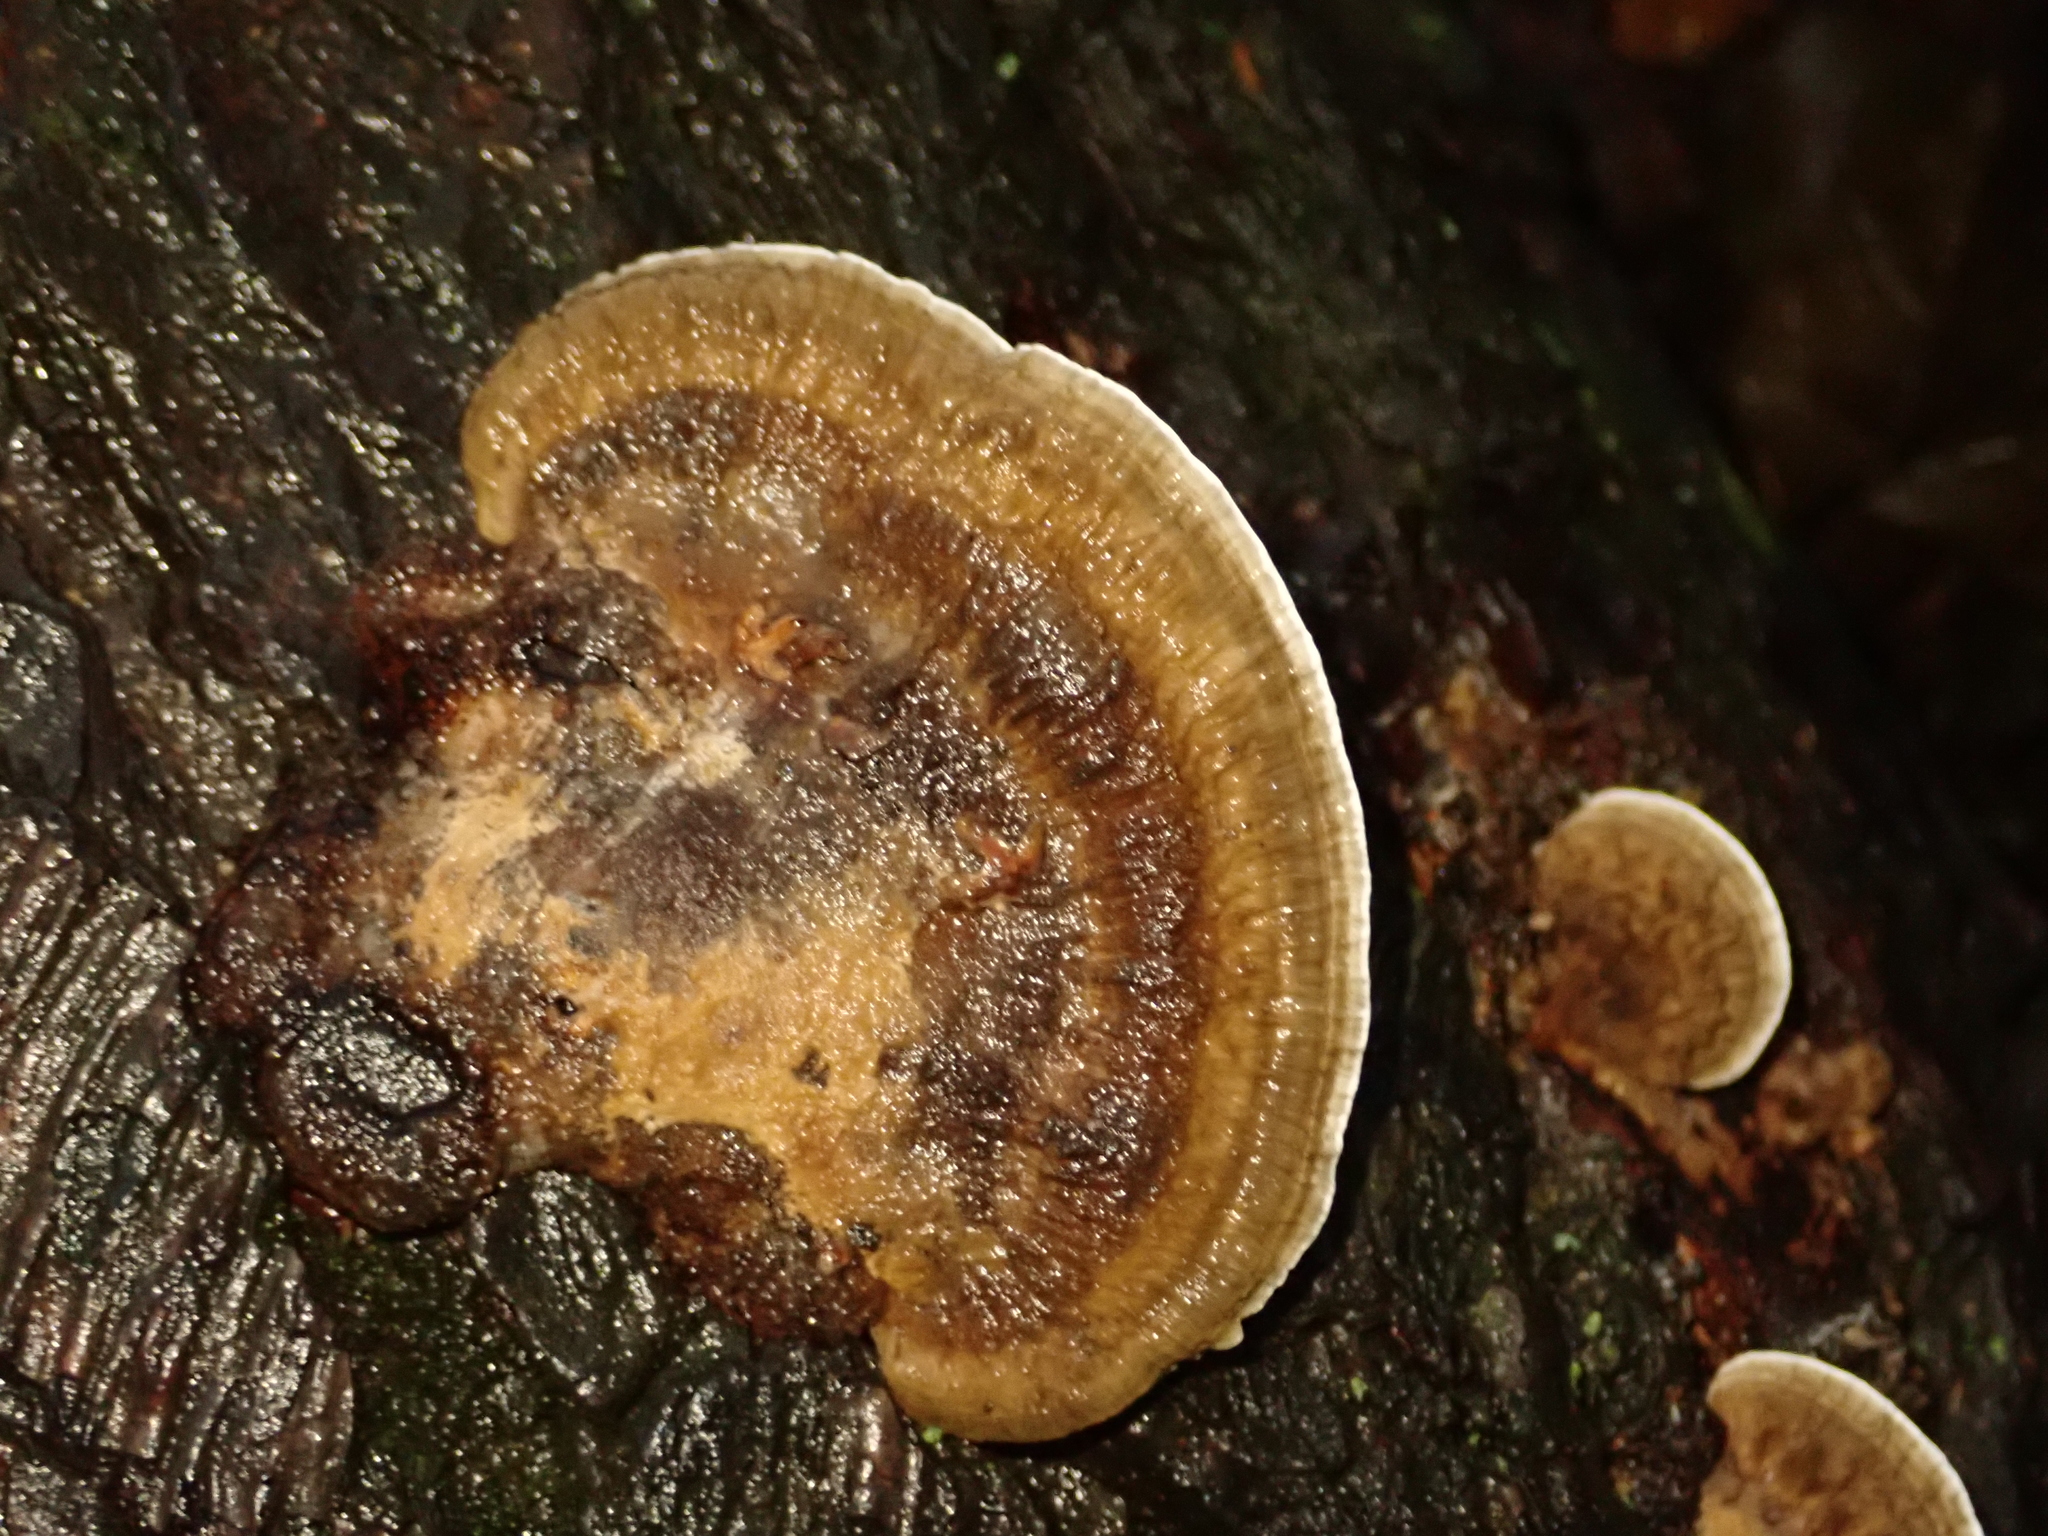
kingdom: Fungi
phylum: Basidiomycota
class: Agaricomycetes
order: Polyporales
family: Polyporaceae
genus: Daedaleopsis
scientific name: Daedaleopsis confragosa
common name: Blushing bracket
